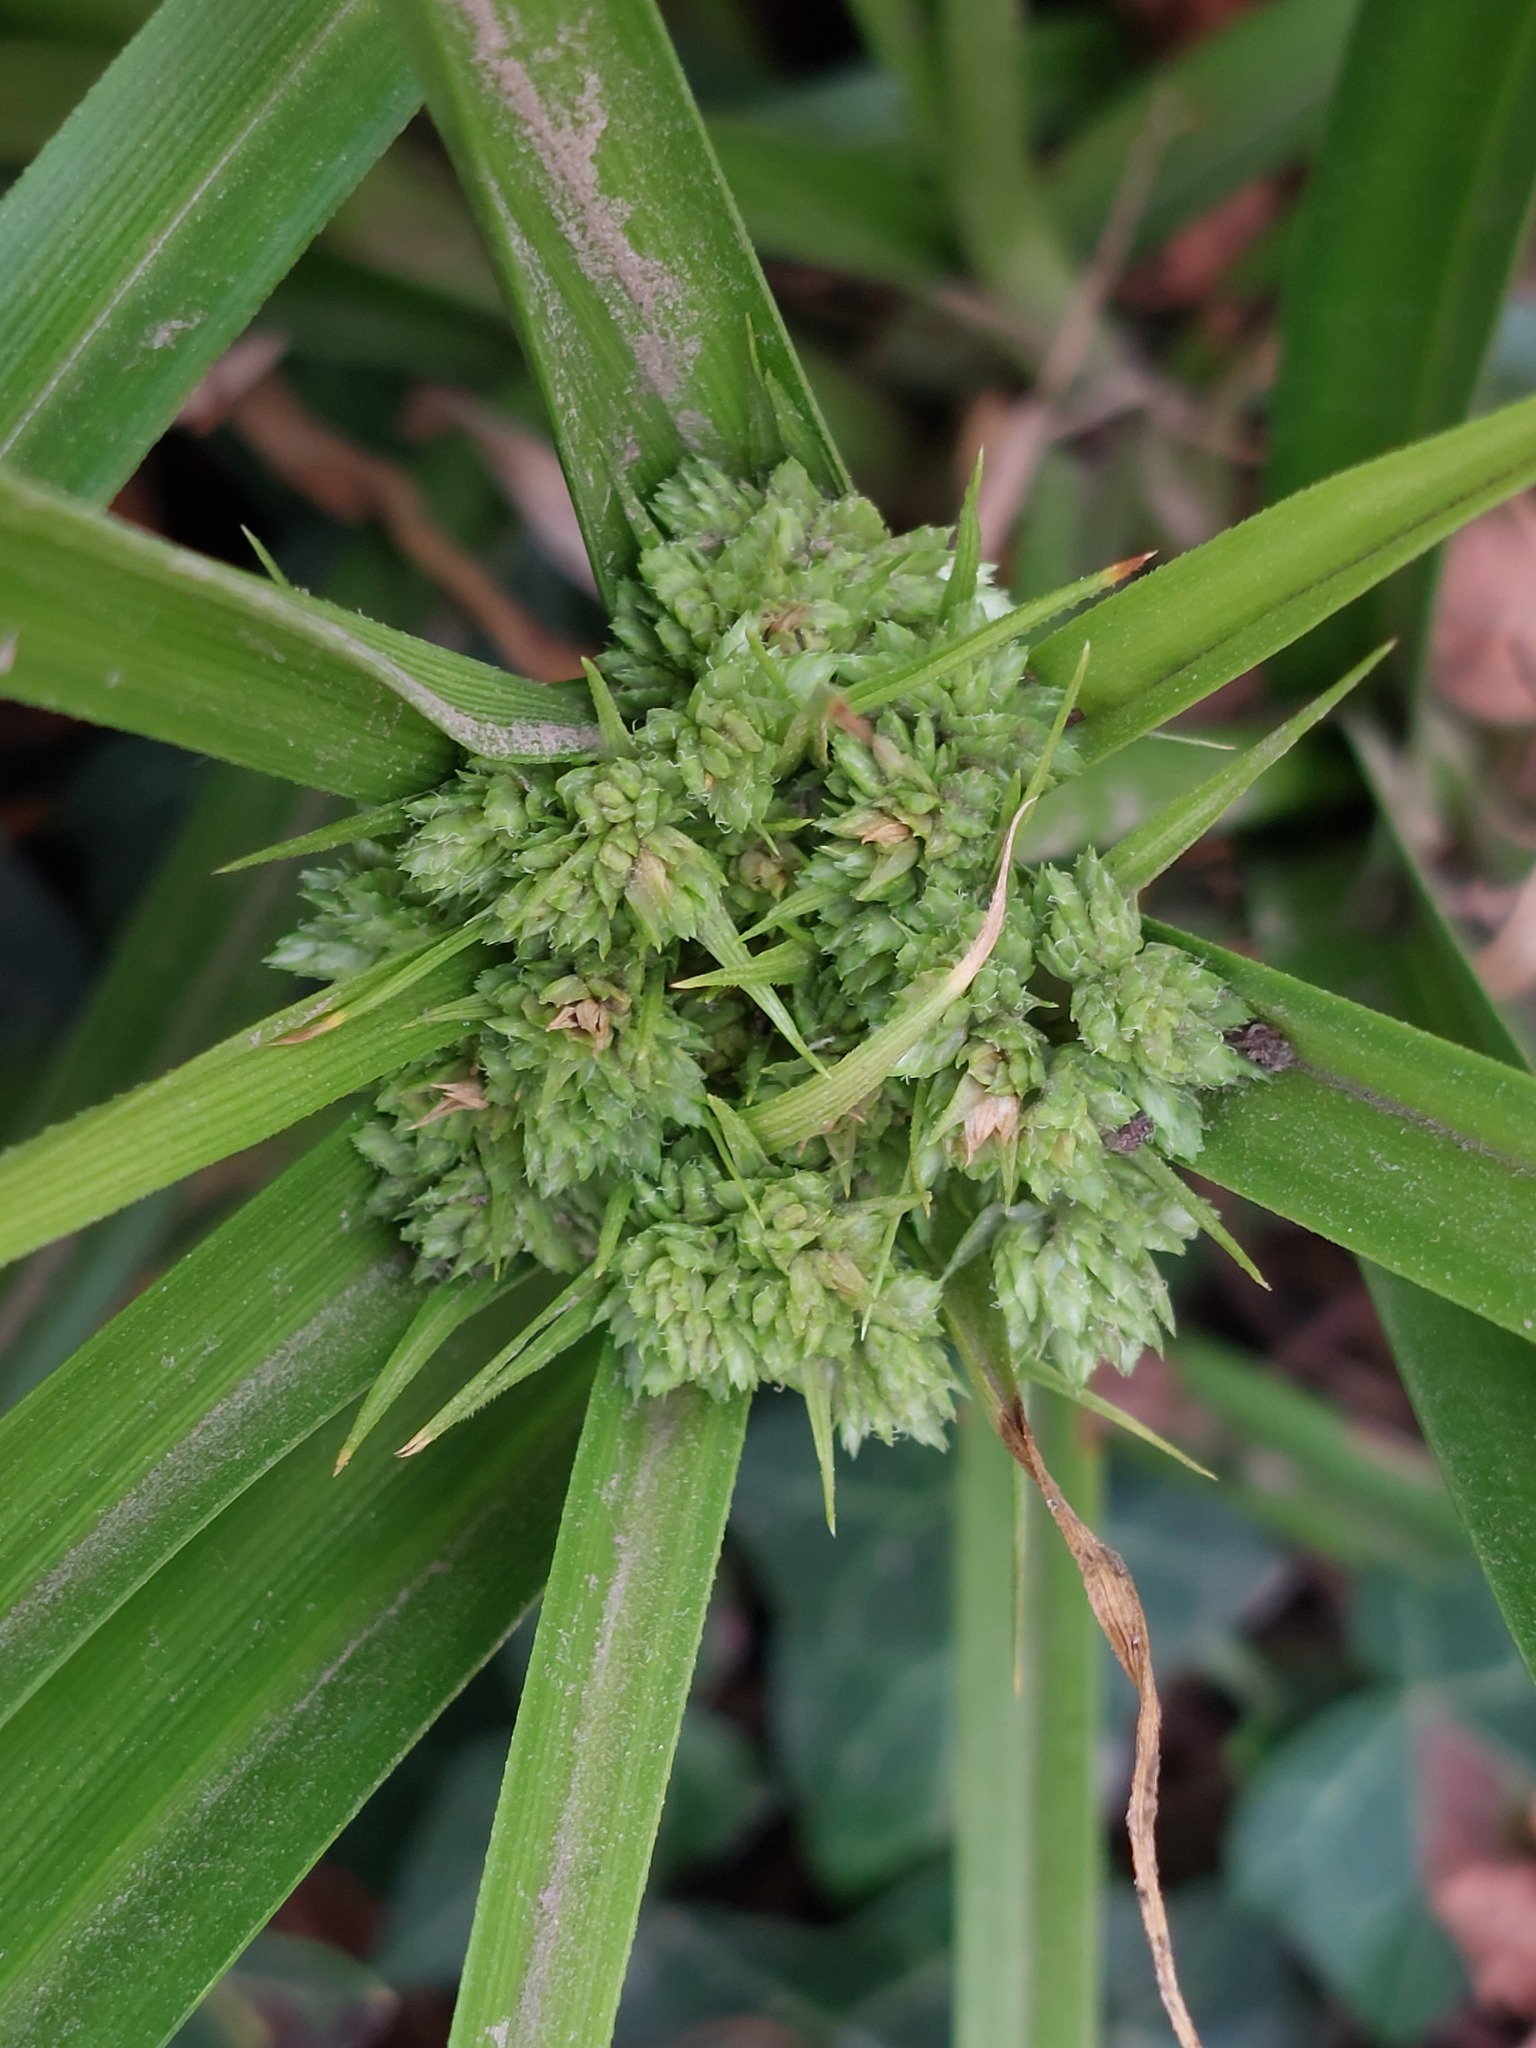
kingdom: Plantae
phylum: Tracheophyta
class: Liliopsida
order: Poales
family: Cyperaceae
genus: Cyperus
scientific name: Cyperus eragrostis
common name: Tall flatsedge
